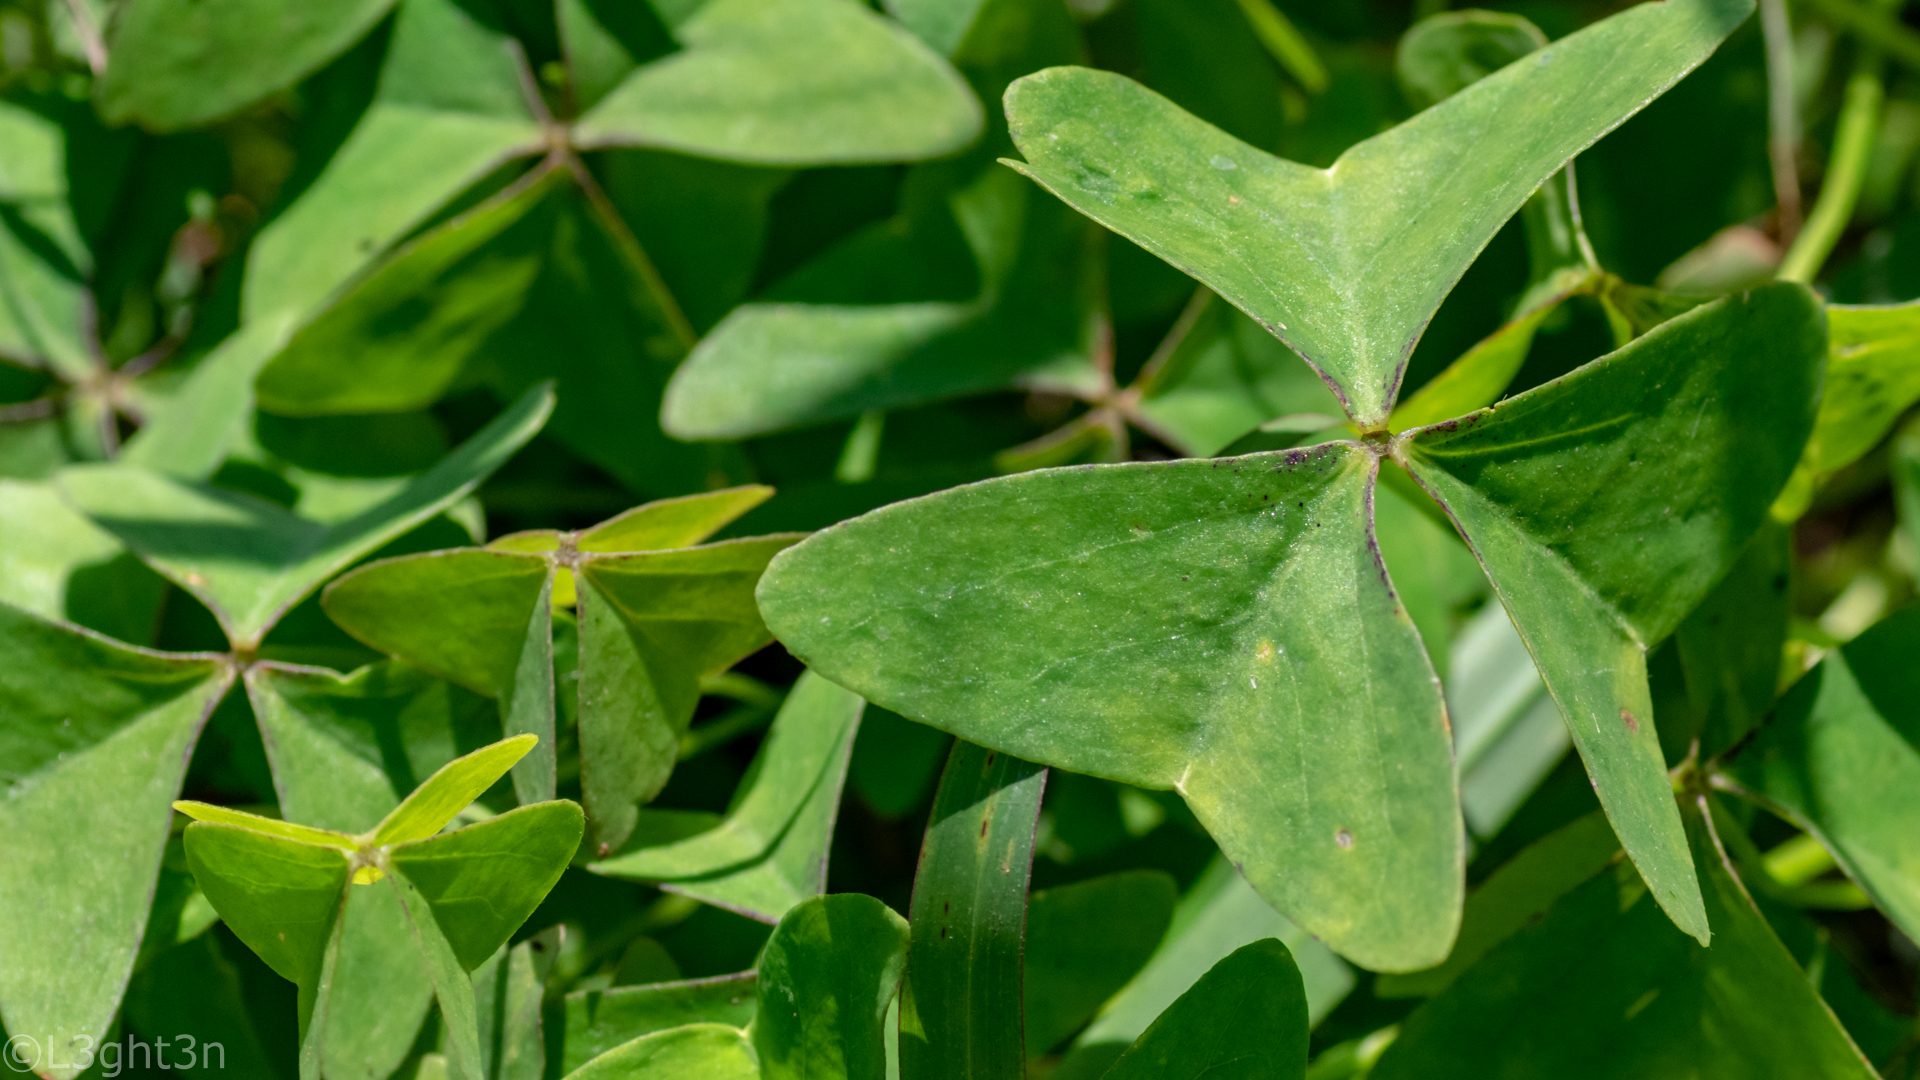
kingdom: Plantae
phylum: Tracheophyta
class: Magnoliopsida
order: Oxalidales
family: Oxalidaceae
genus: Oxalis
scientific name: Oxalis latifolia
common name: Garden pink-sorrel
